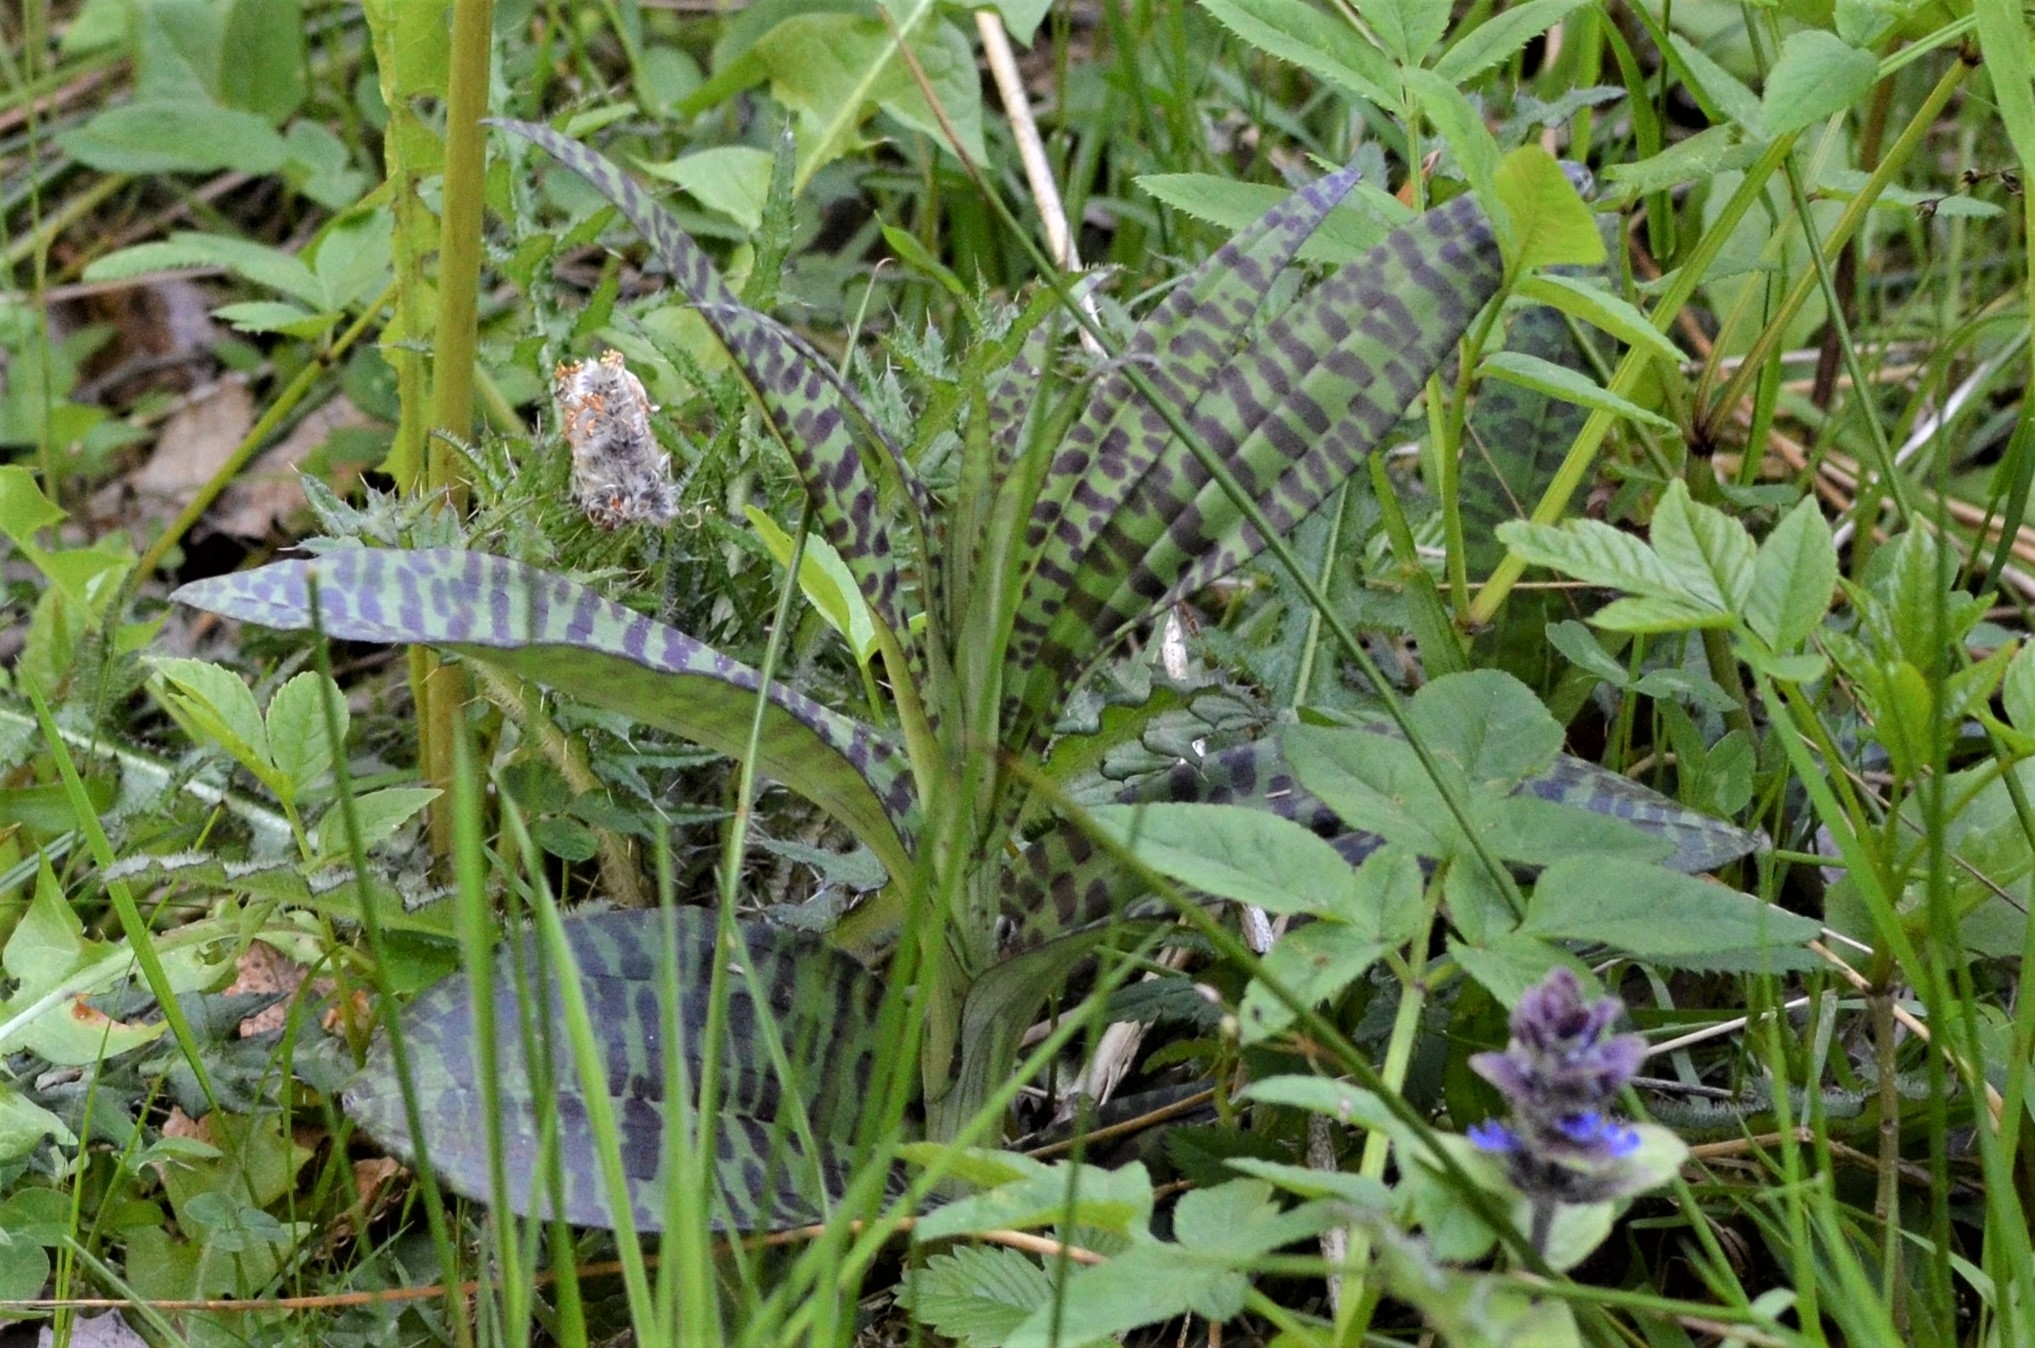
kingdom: Plantae
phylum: Tracheophyta
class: Liliopsida
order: Asparagales
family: Orchidaceae
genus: Dactylorhiza
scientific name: Dactylorhiza maculata
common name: Heath spotted-orchid
